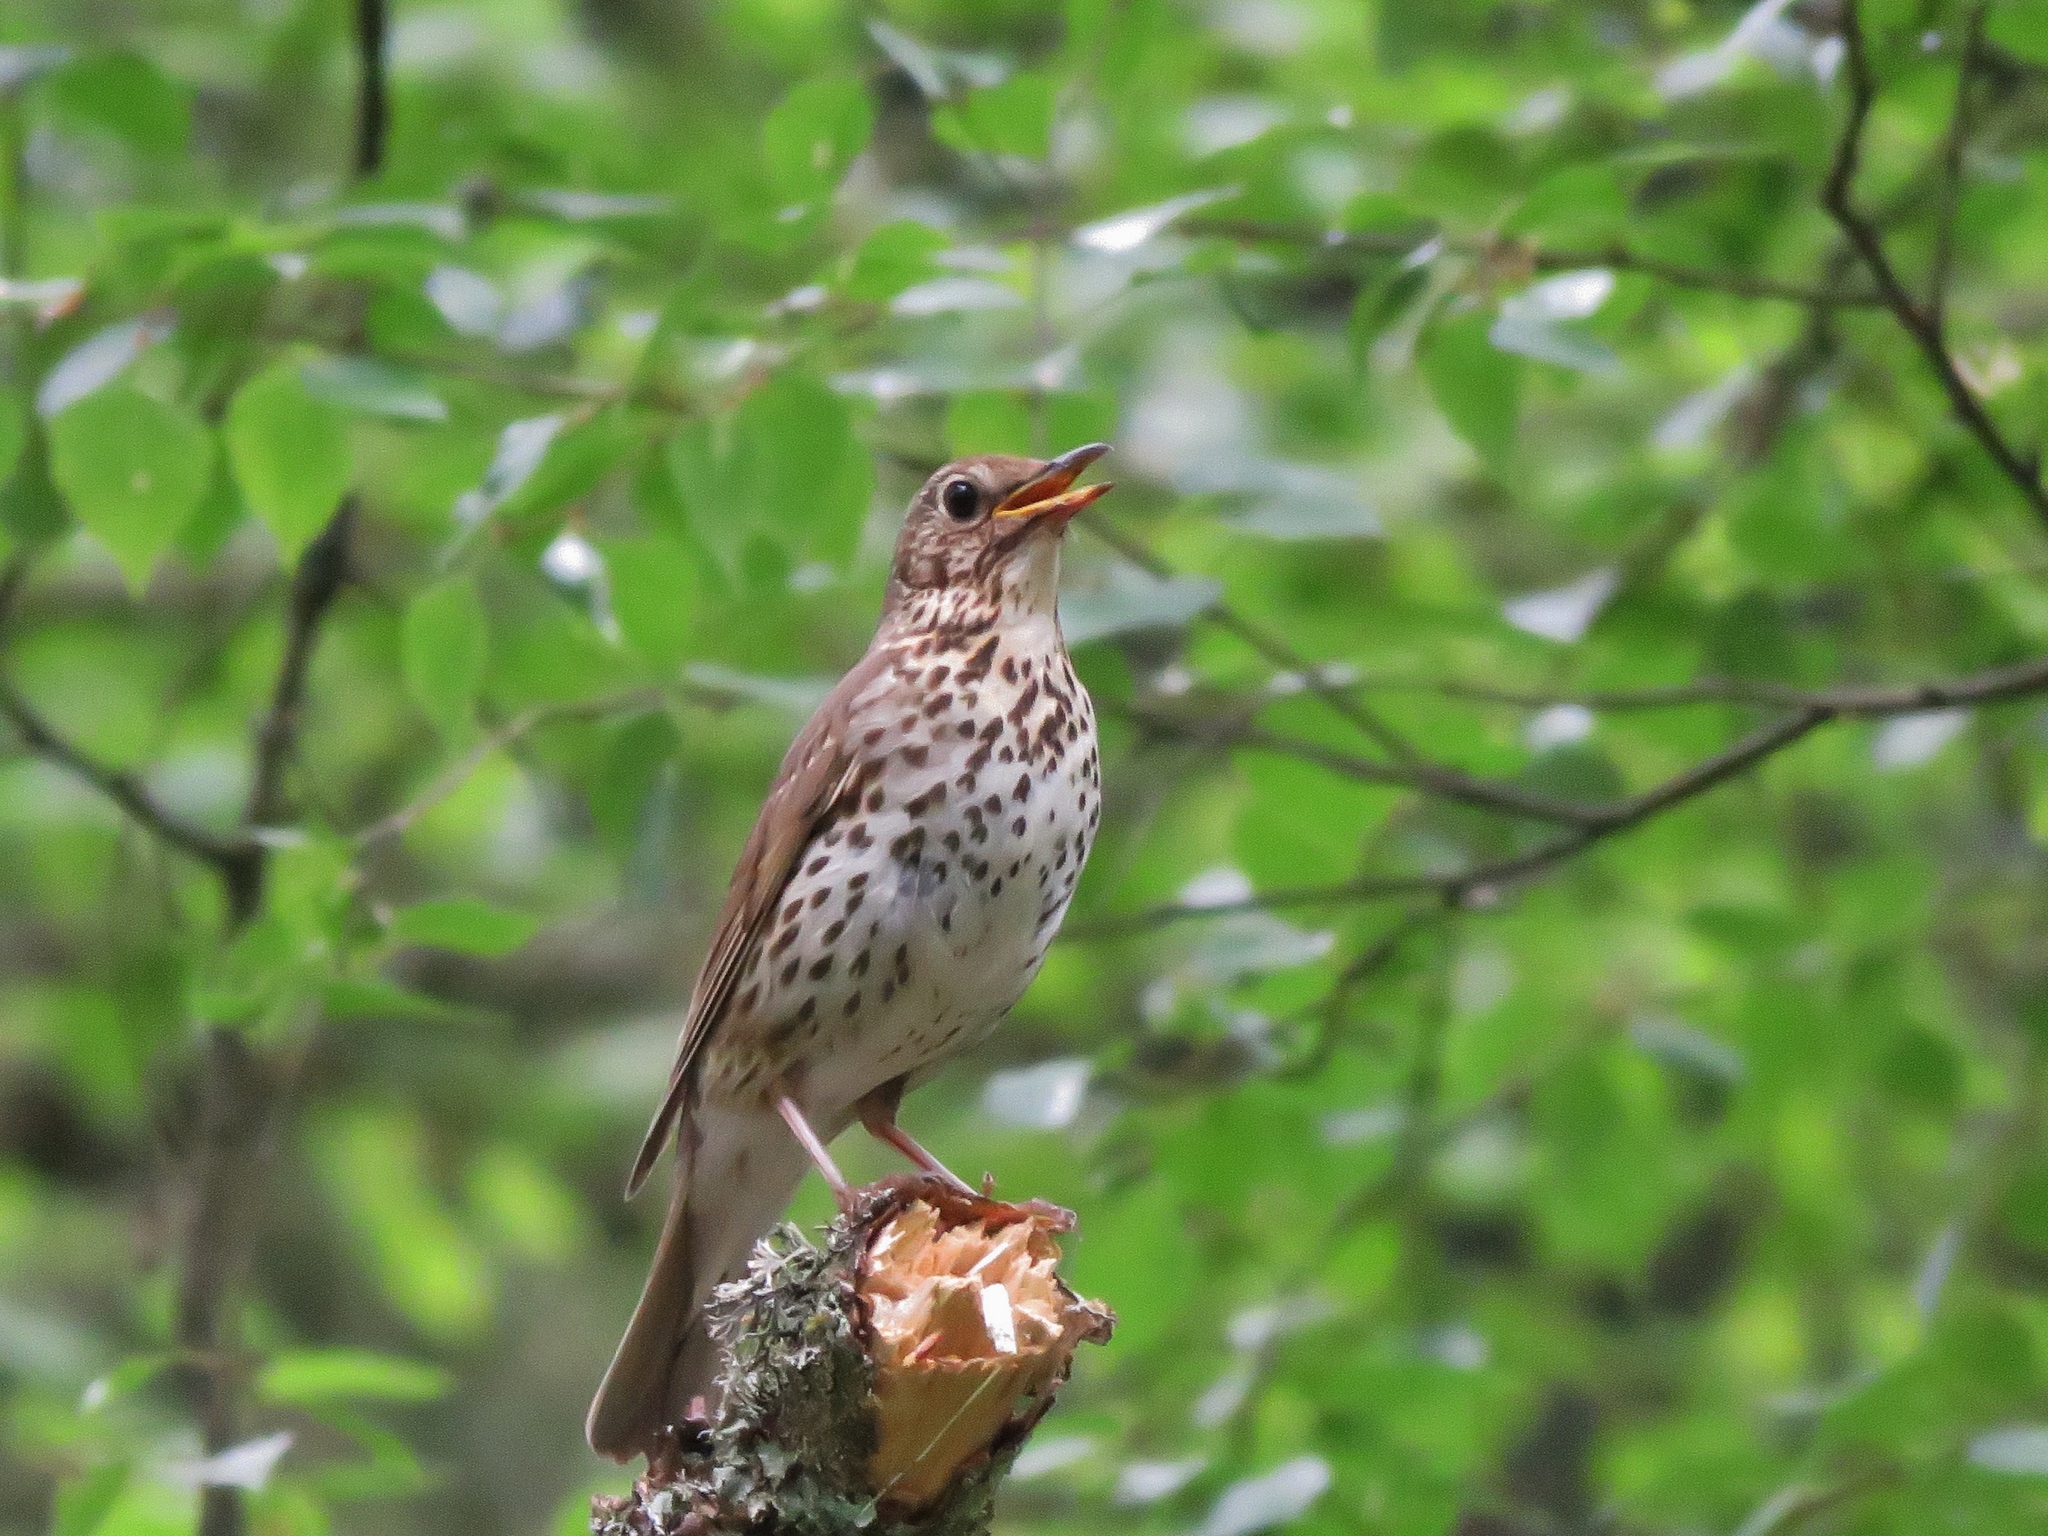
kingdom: Animalia
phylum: Chordata
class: Aves
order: Passeriformes
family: Turdidae
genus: Turdus
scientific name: Turdus philomelos
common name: Song thrush
